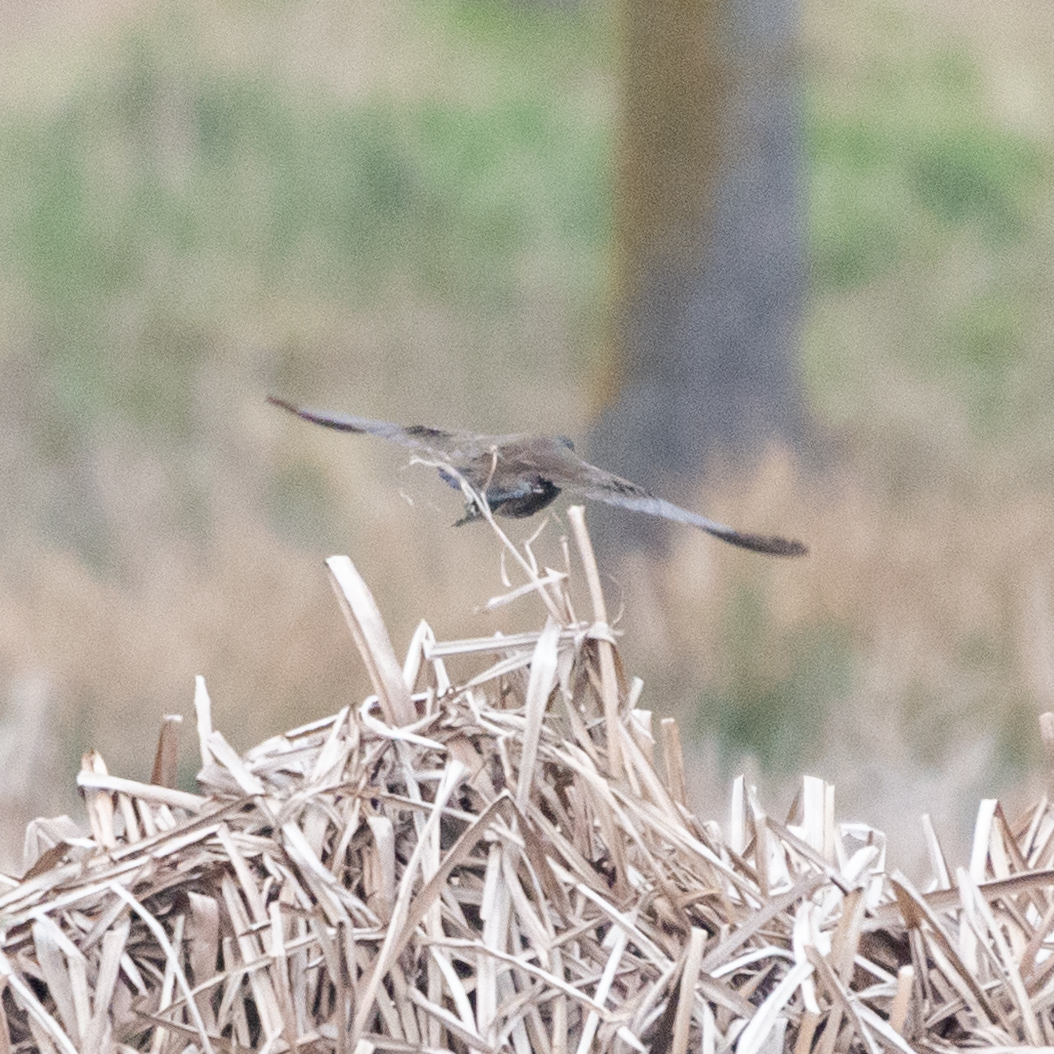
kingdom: Animalia
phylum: Chordata
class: Aves
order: Gruiformes
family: Rallidae
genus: Gallinula
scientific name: Gallinula chloropus
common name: Common moorhen
